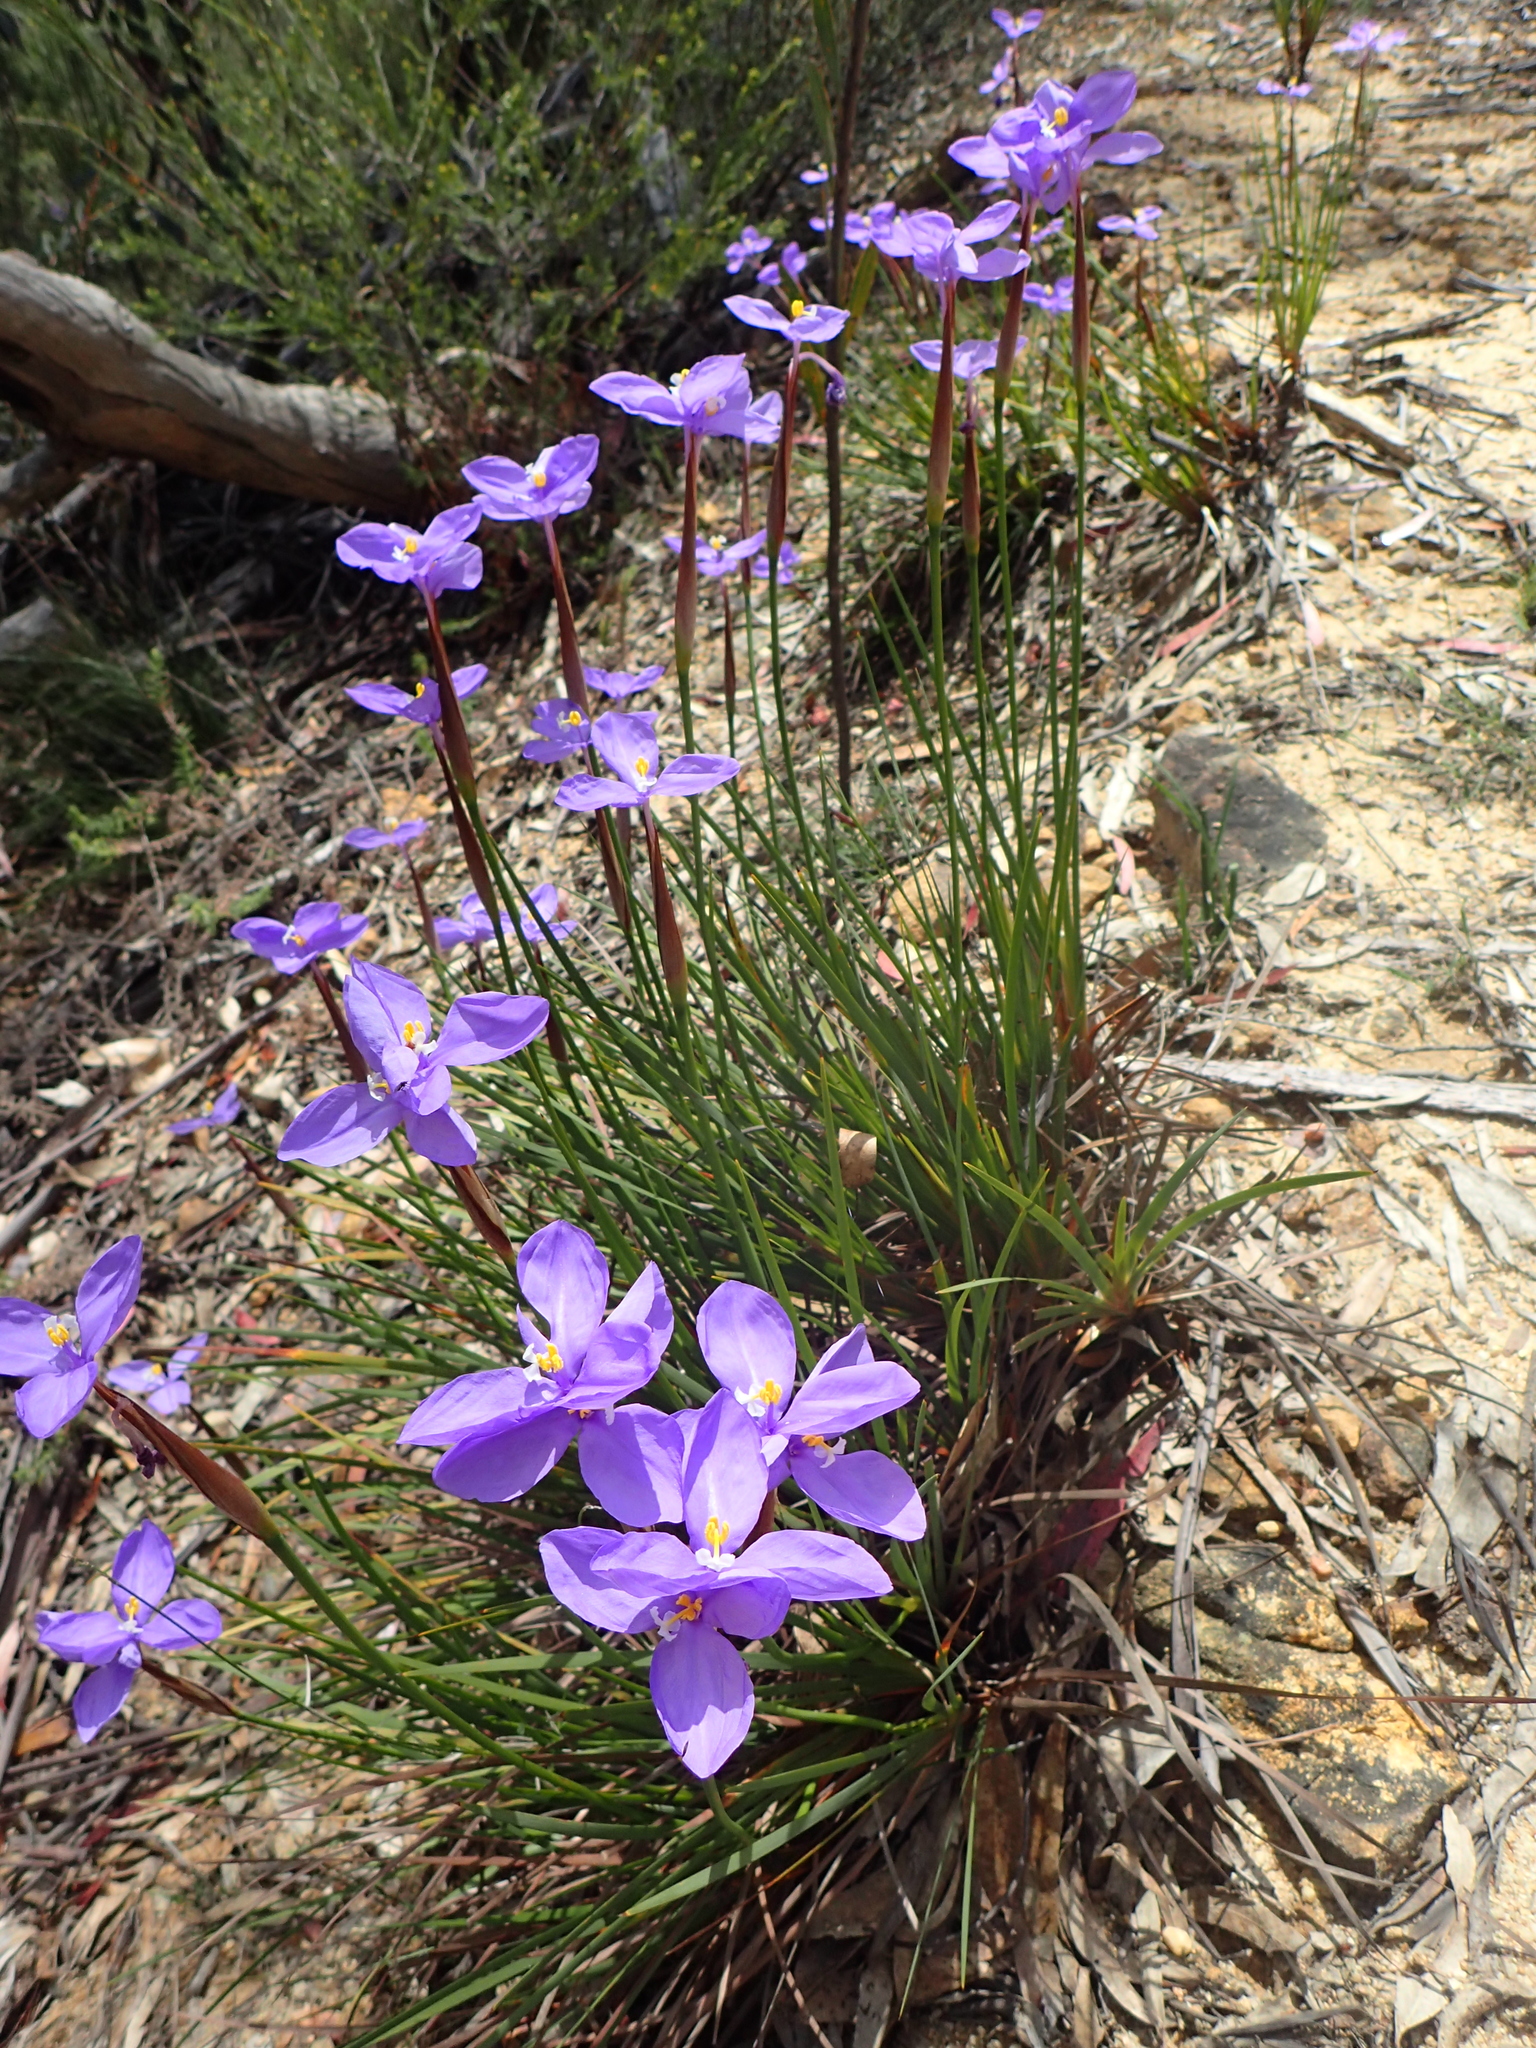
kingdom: Plantae
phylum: Tracheophyta
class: Liliopsida
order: Asparagales
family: Iridaceae
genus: Patersonia
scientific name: Patersonia glabrata
